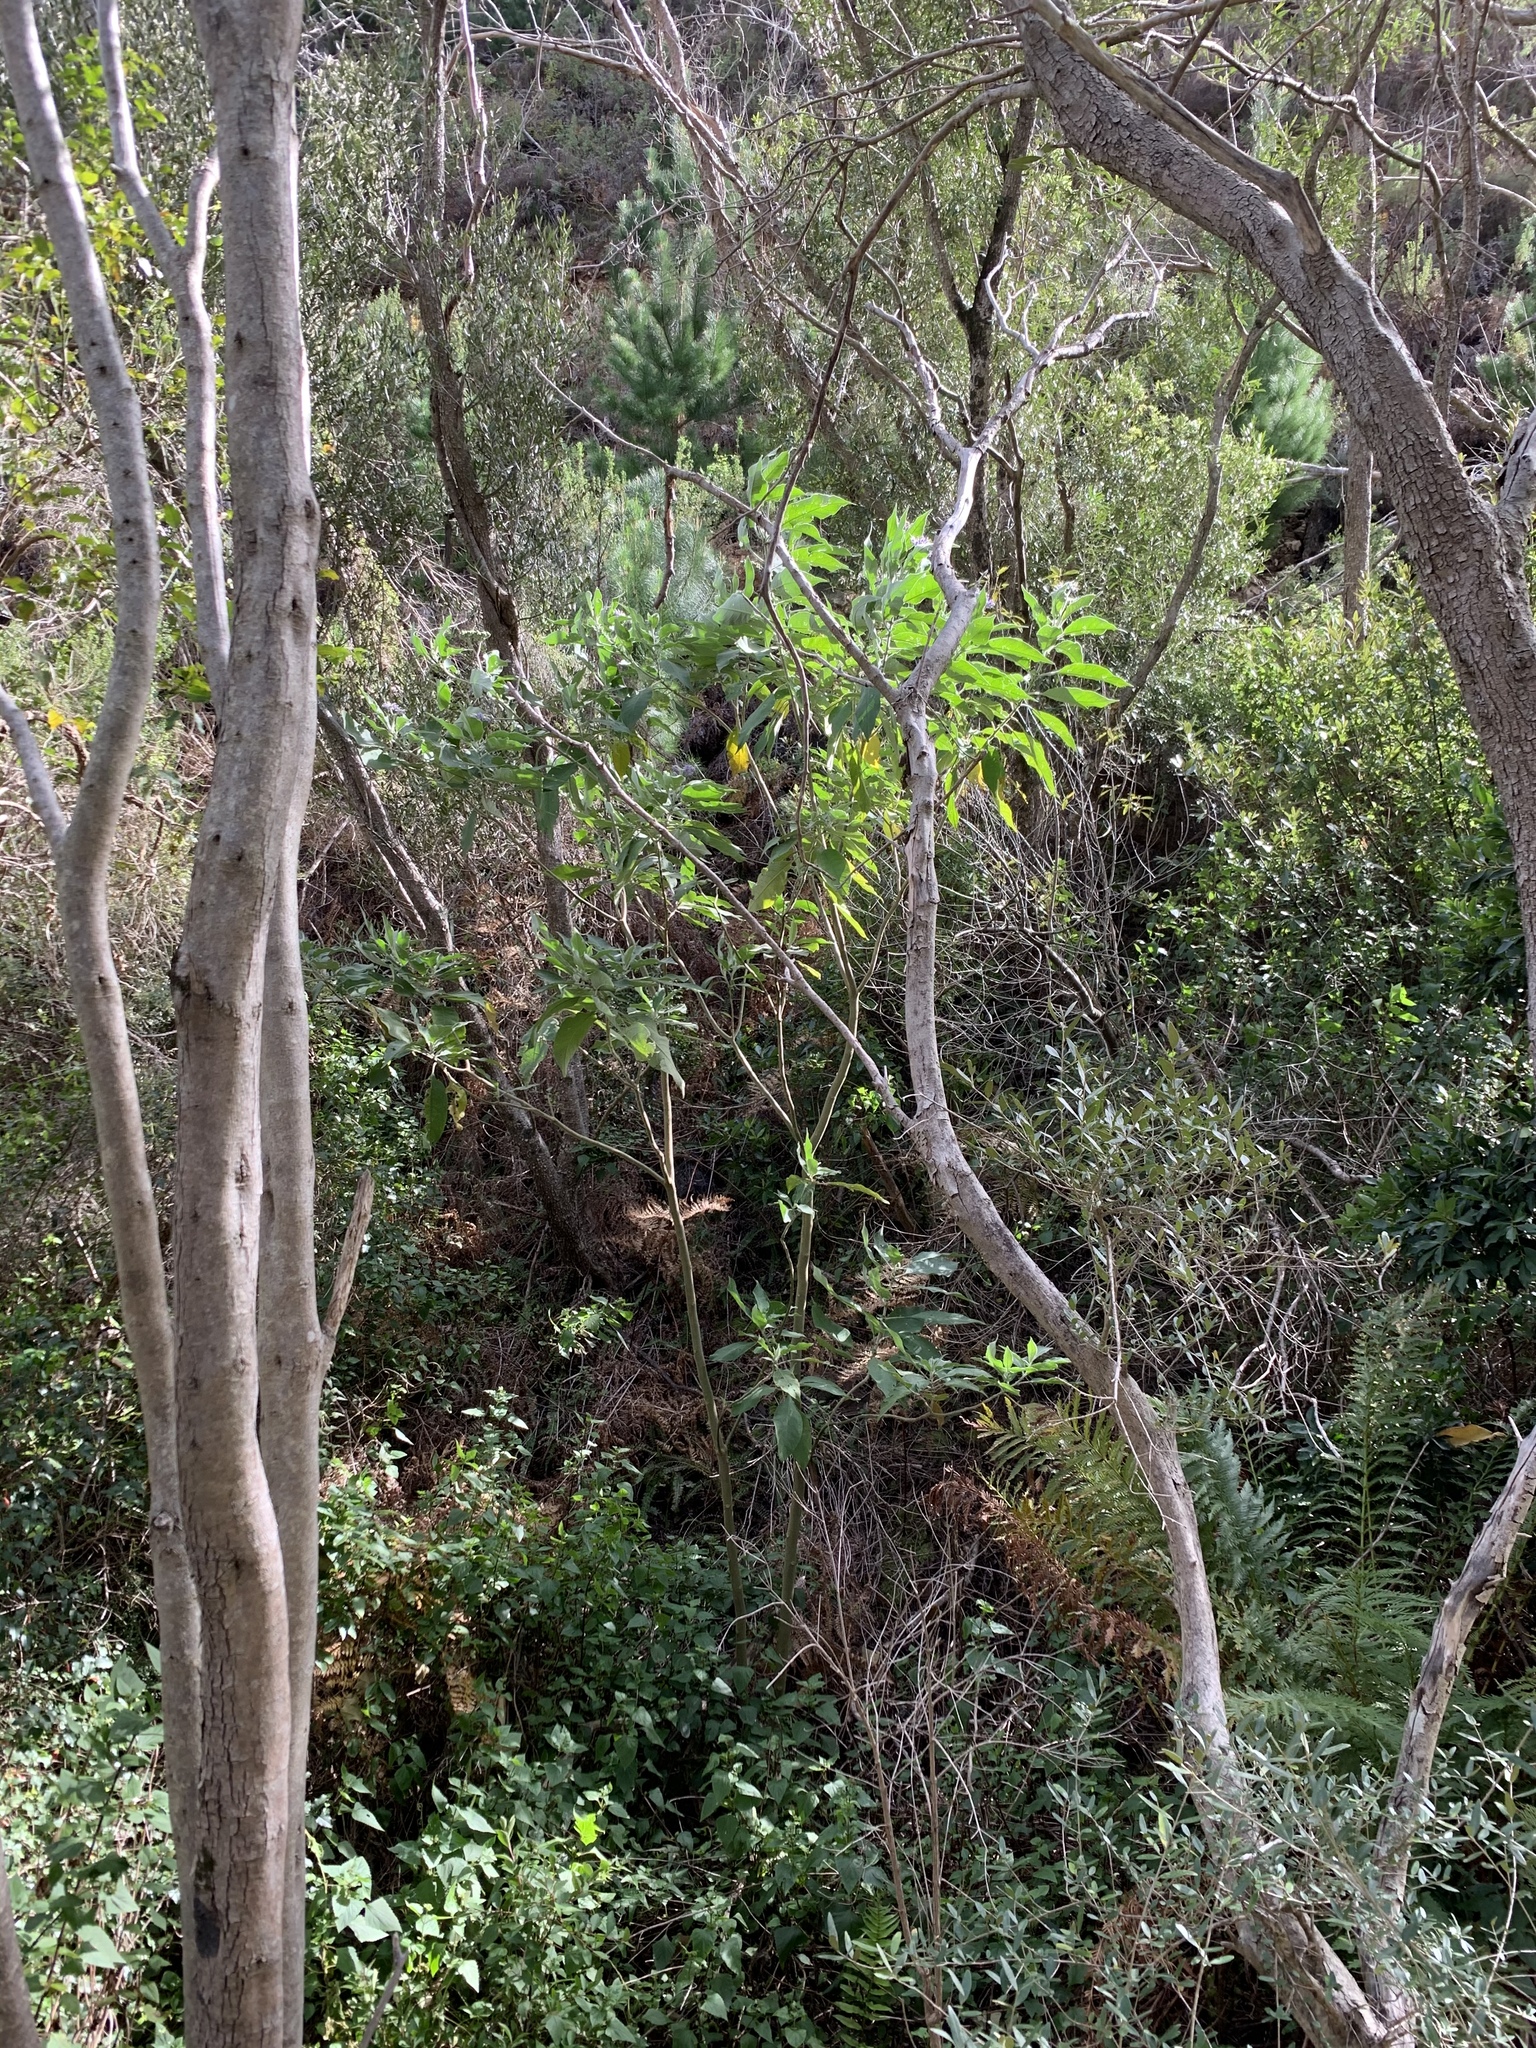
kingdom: Plantae
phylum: Tracheophyta
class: Magnoliopsida
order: Solanales
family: Solanaceae
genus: Solanum
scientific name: Solanum mauritianum
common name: Earleaf nightshade
